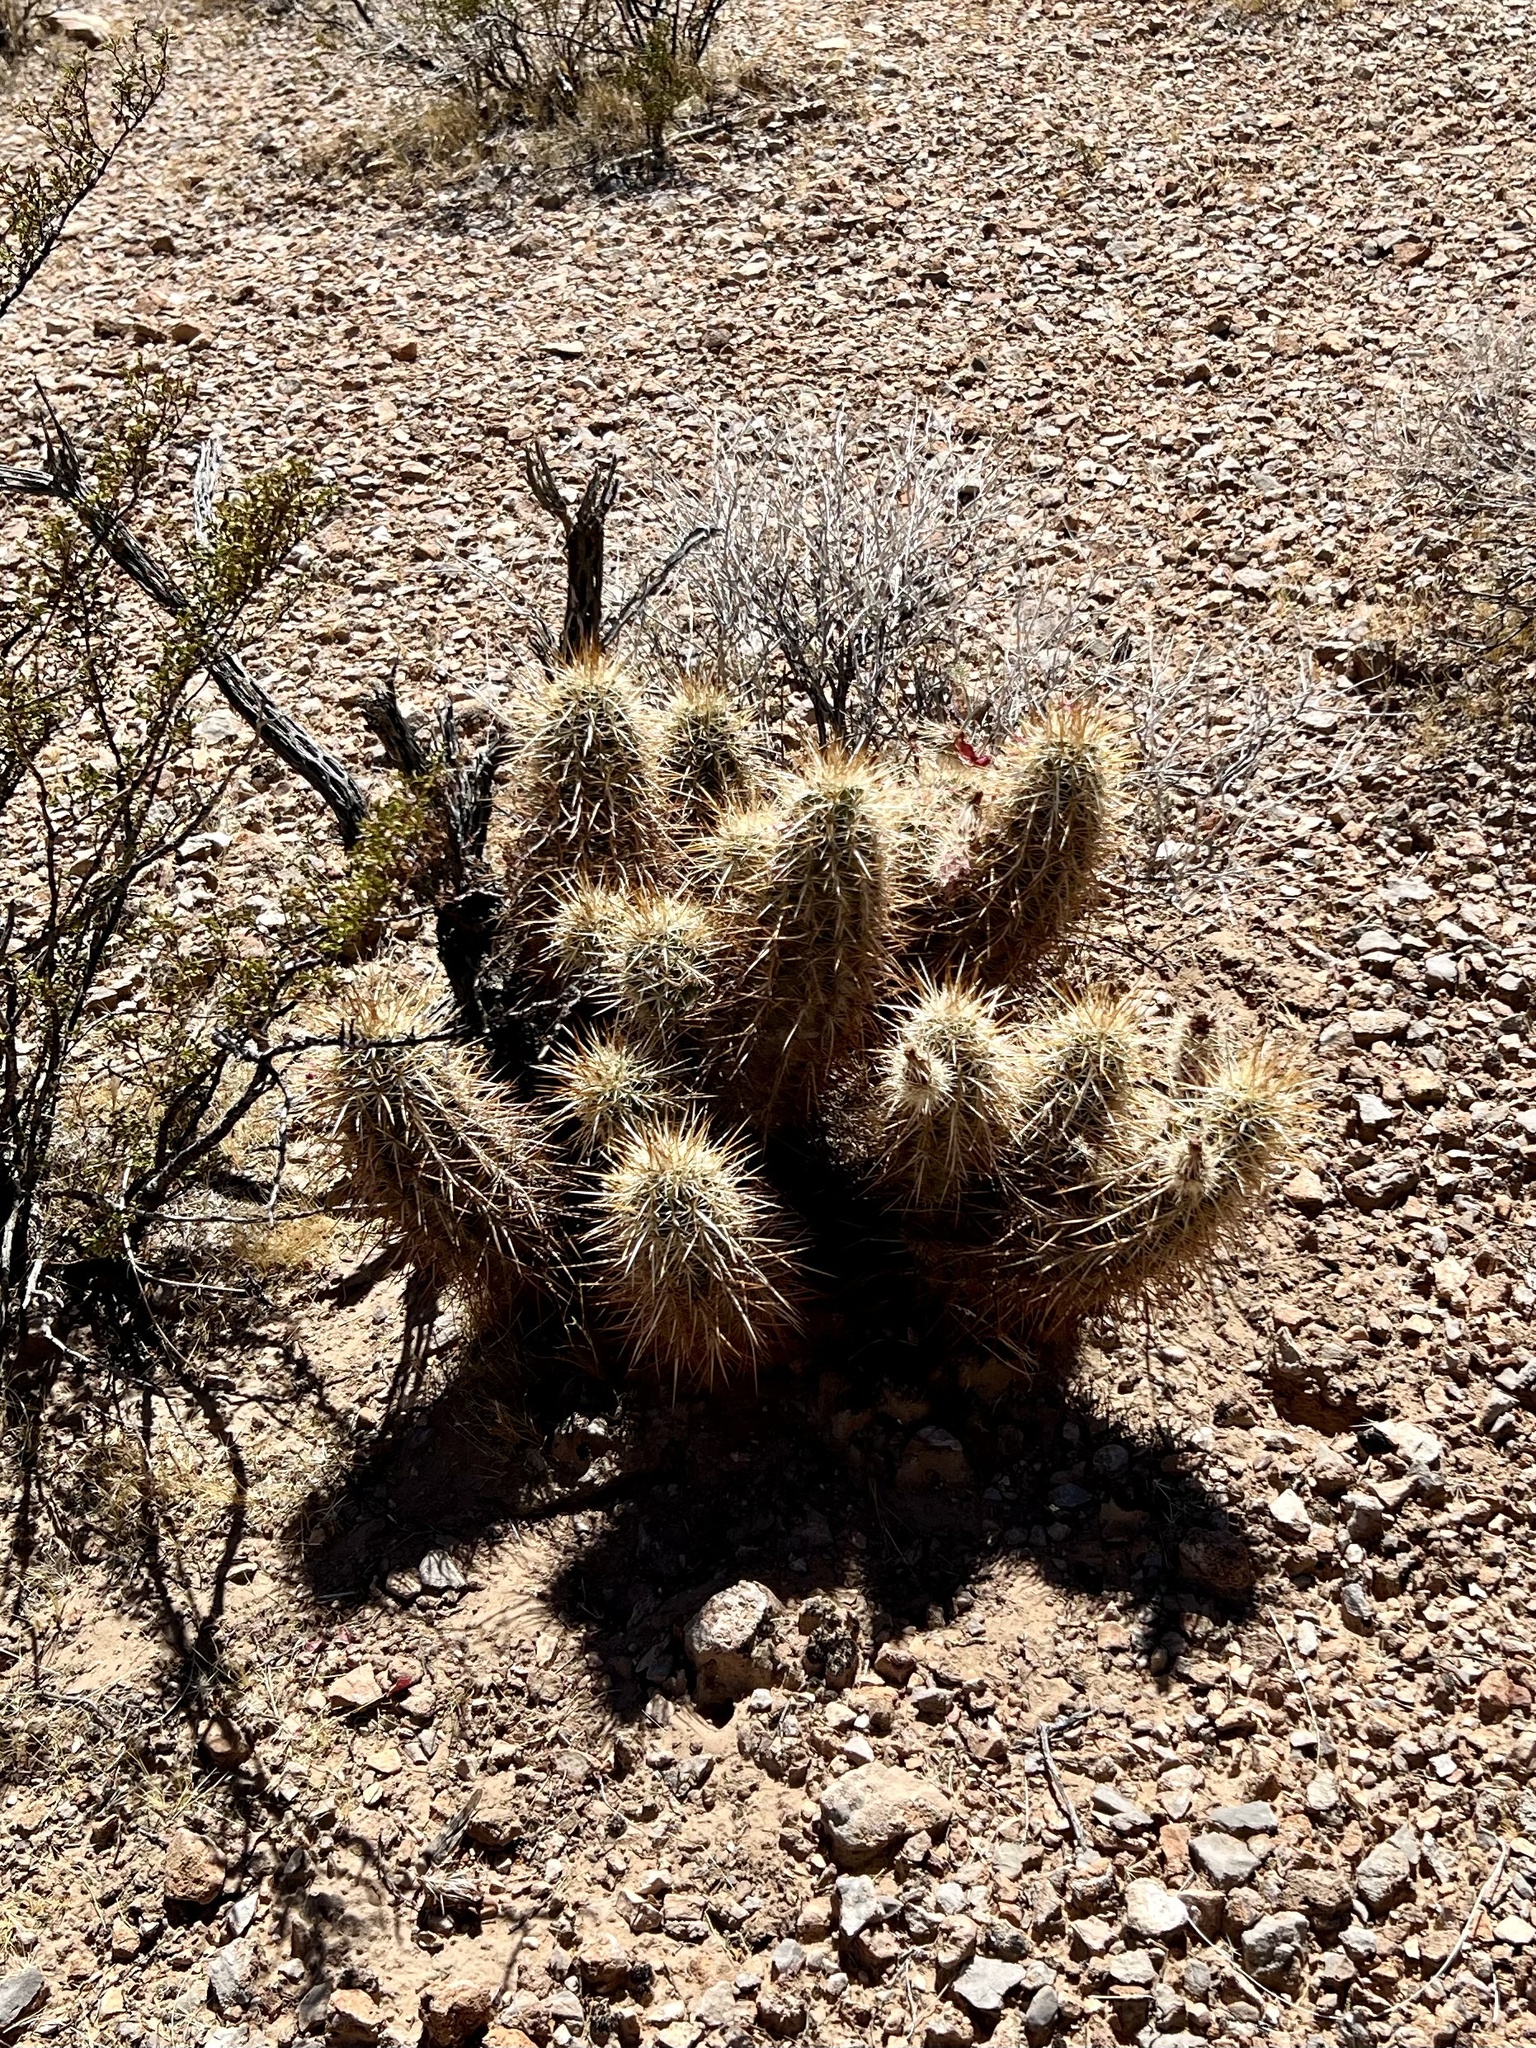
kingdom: Plantae
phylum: Tracheophyta
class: Magnoliopsida
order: Caryophyllales
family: Cactaceae
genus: Echinocereus
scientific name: Echinocereus engelmannii
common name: Engelmann's hedgehog cactus
